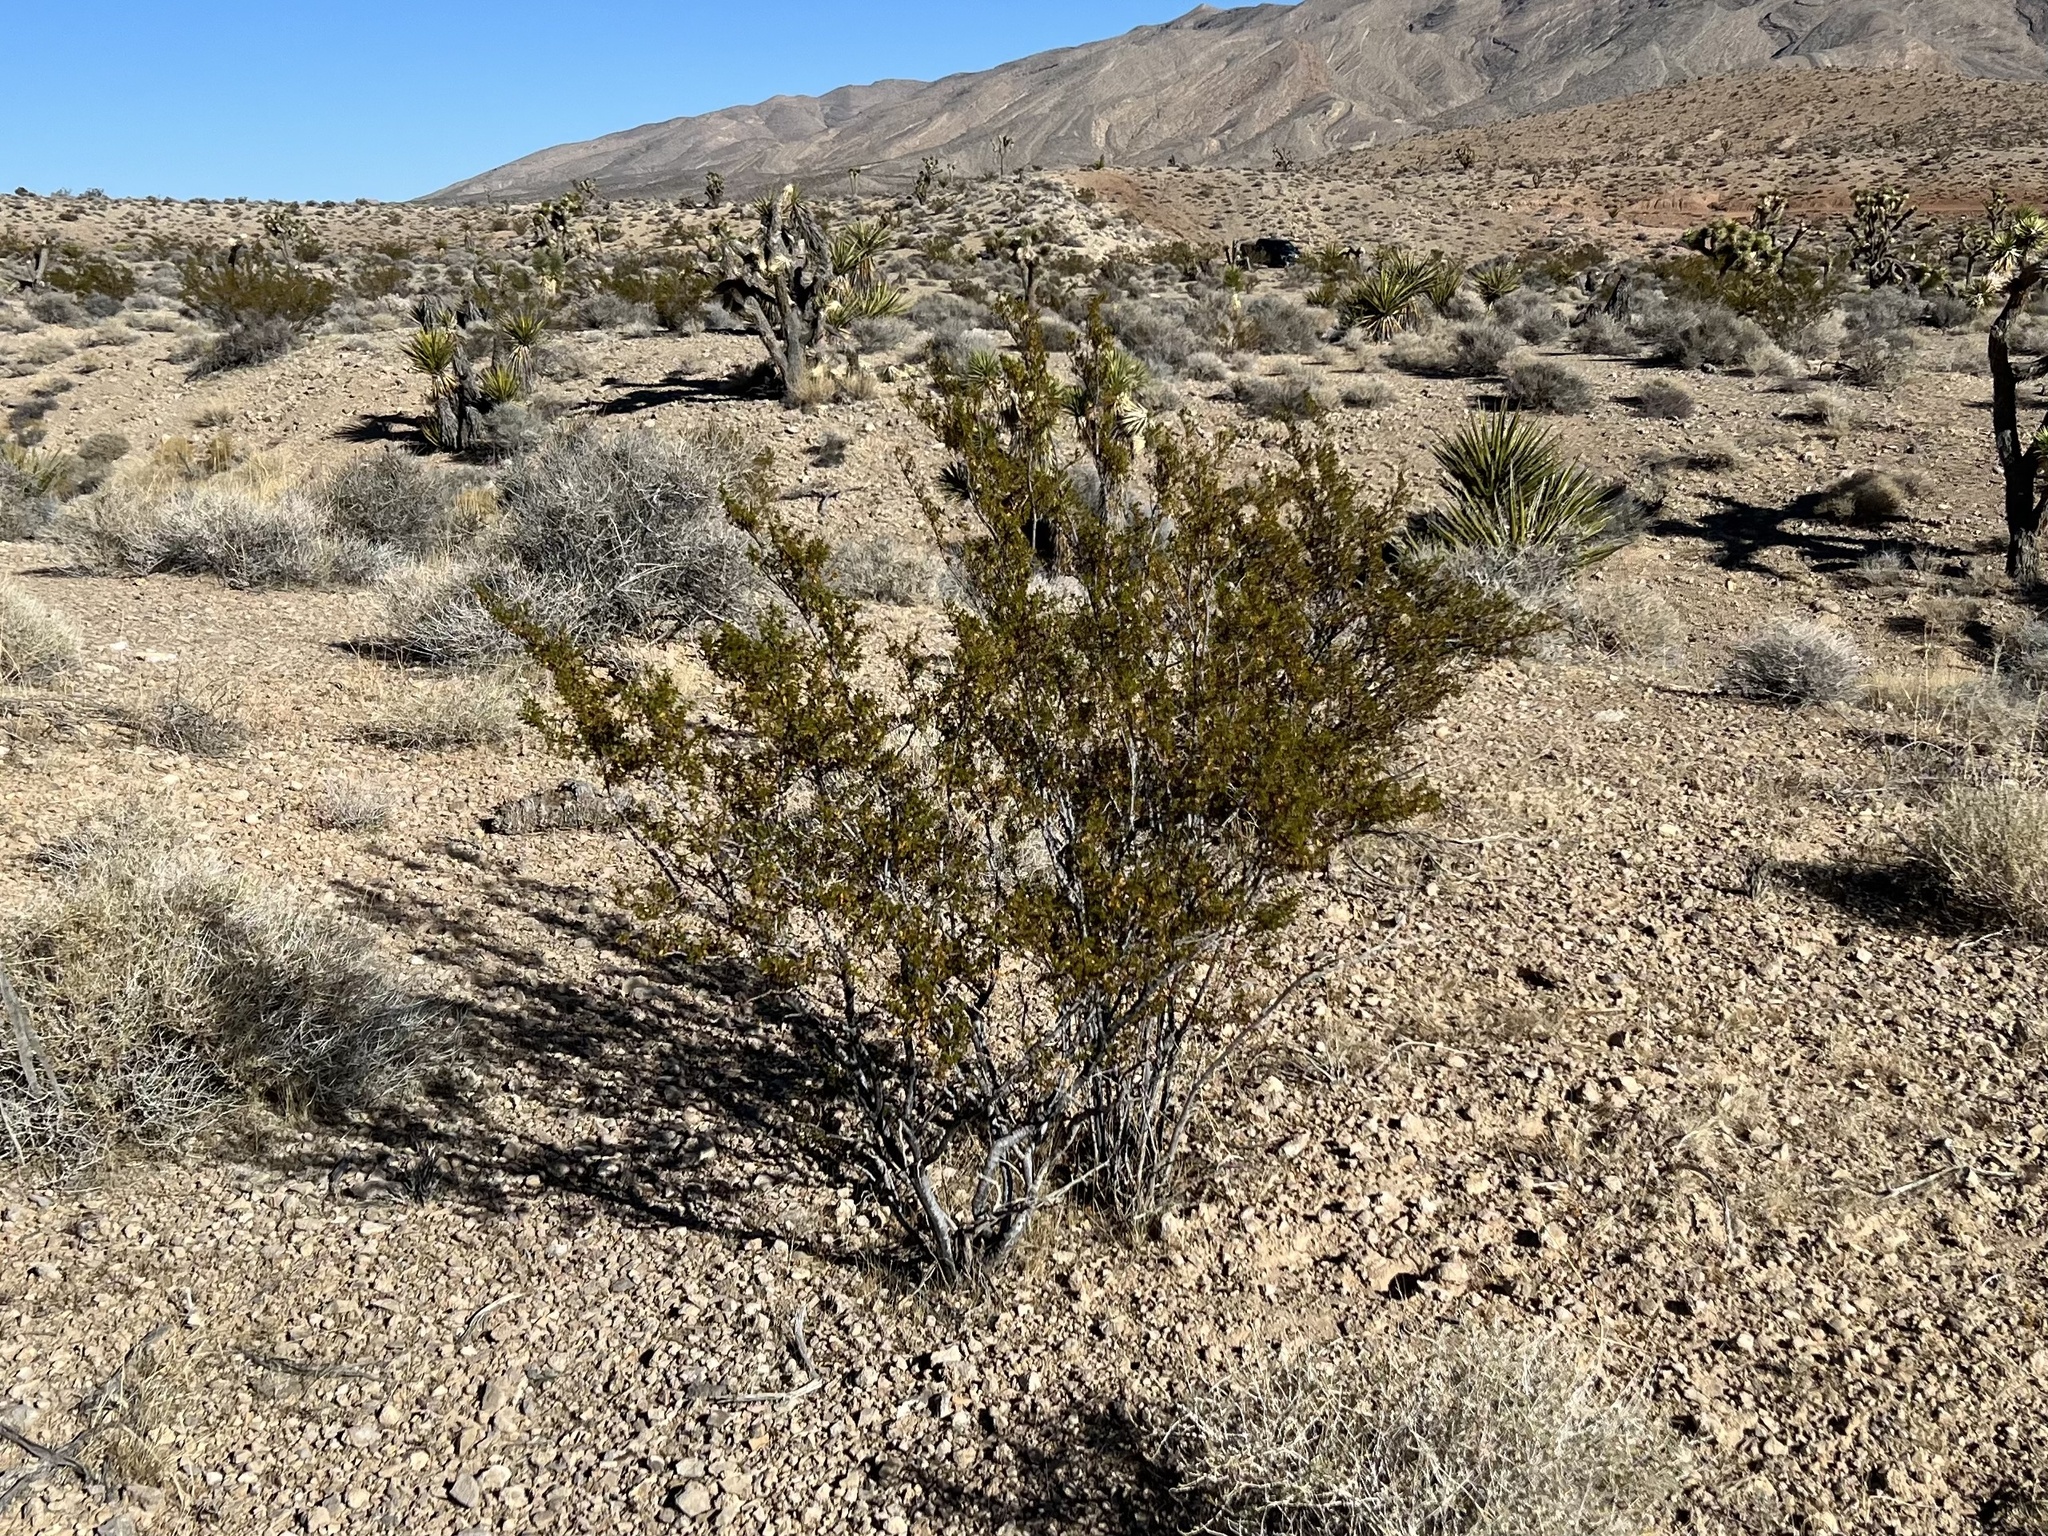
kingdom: Plantae
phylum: Tracheophyta
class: Magnoliopsida
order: Zygophyllales
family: Zygophyllaceae
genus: Larrea
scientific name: Larrea tridentata
